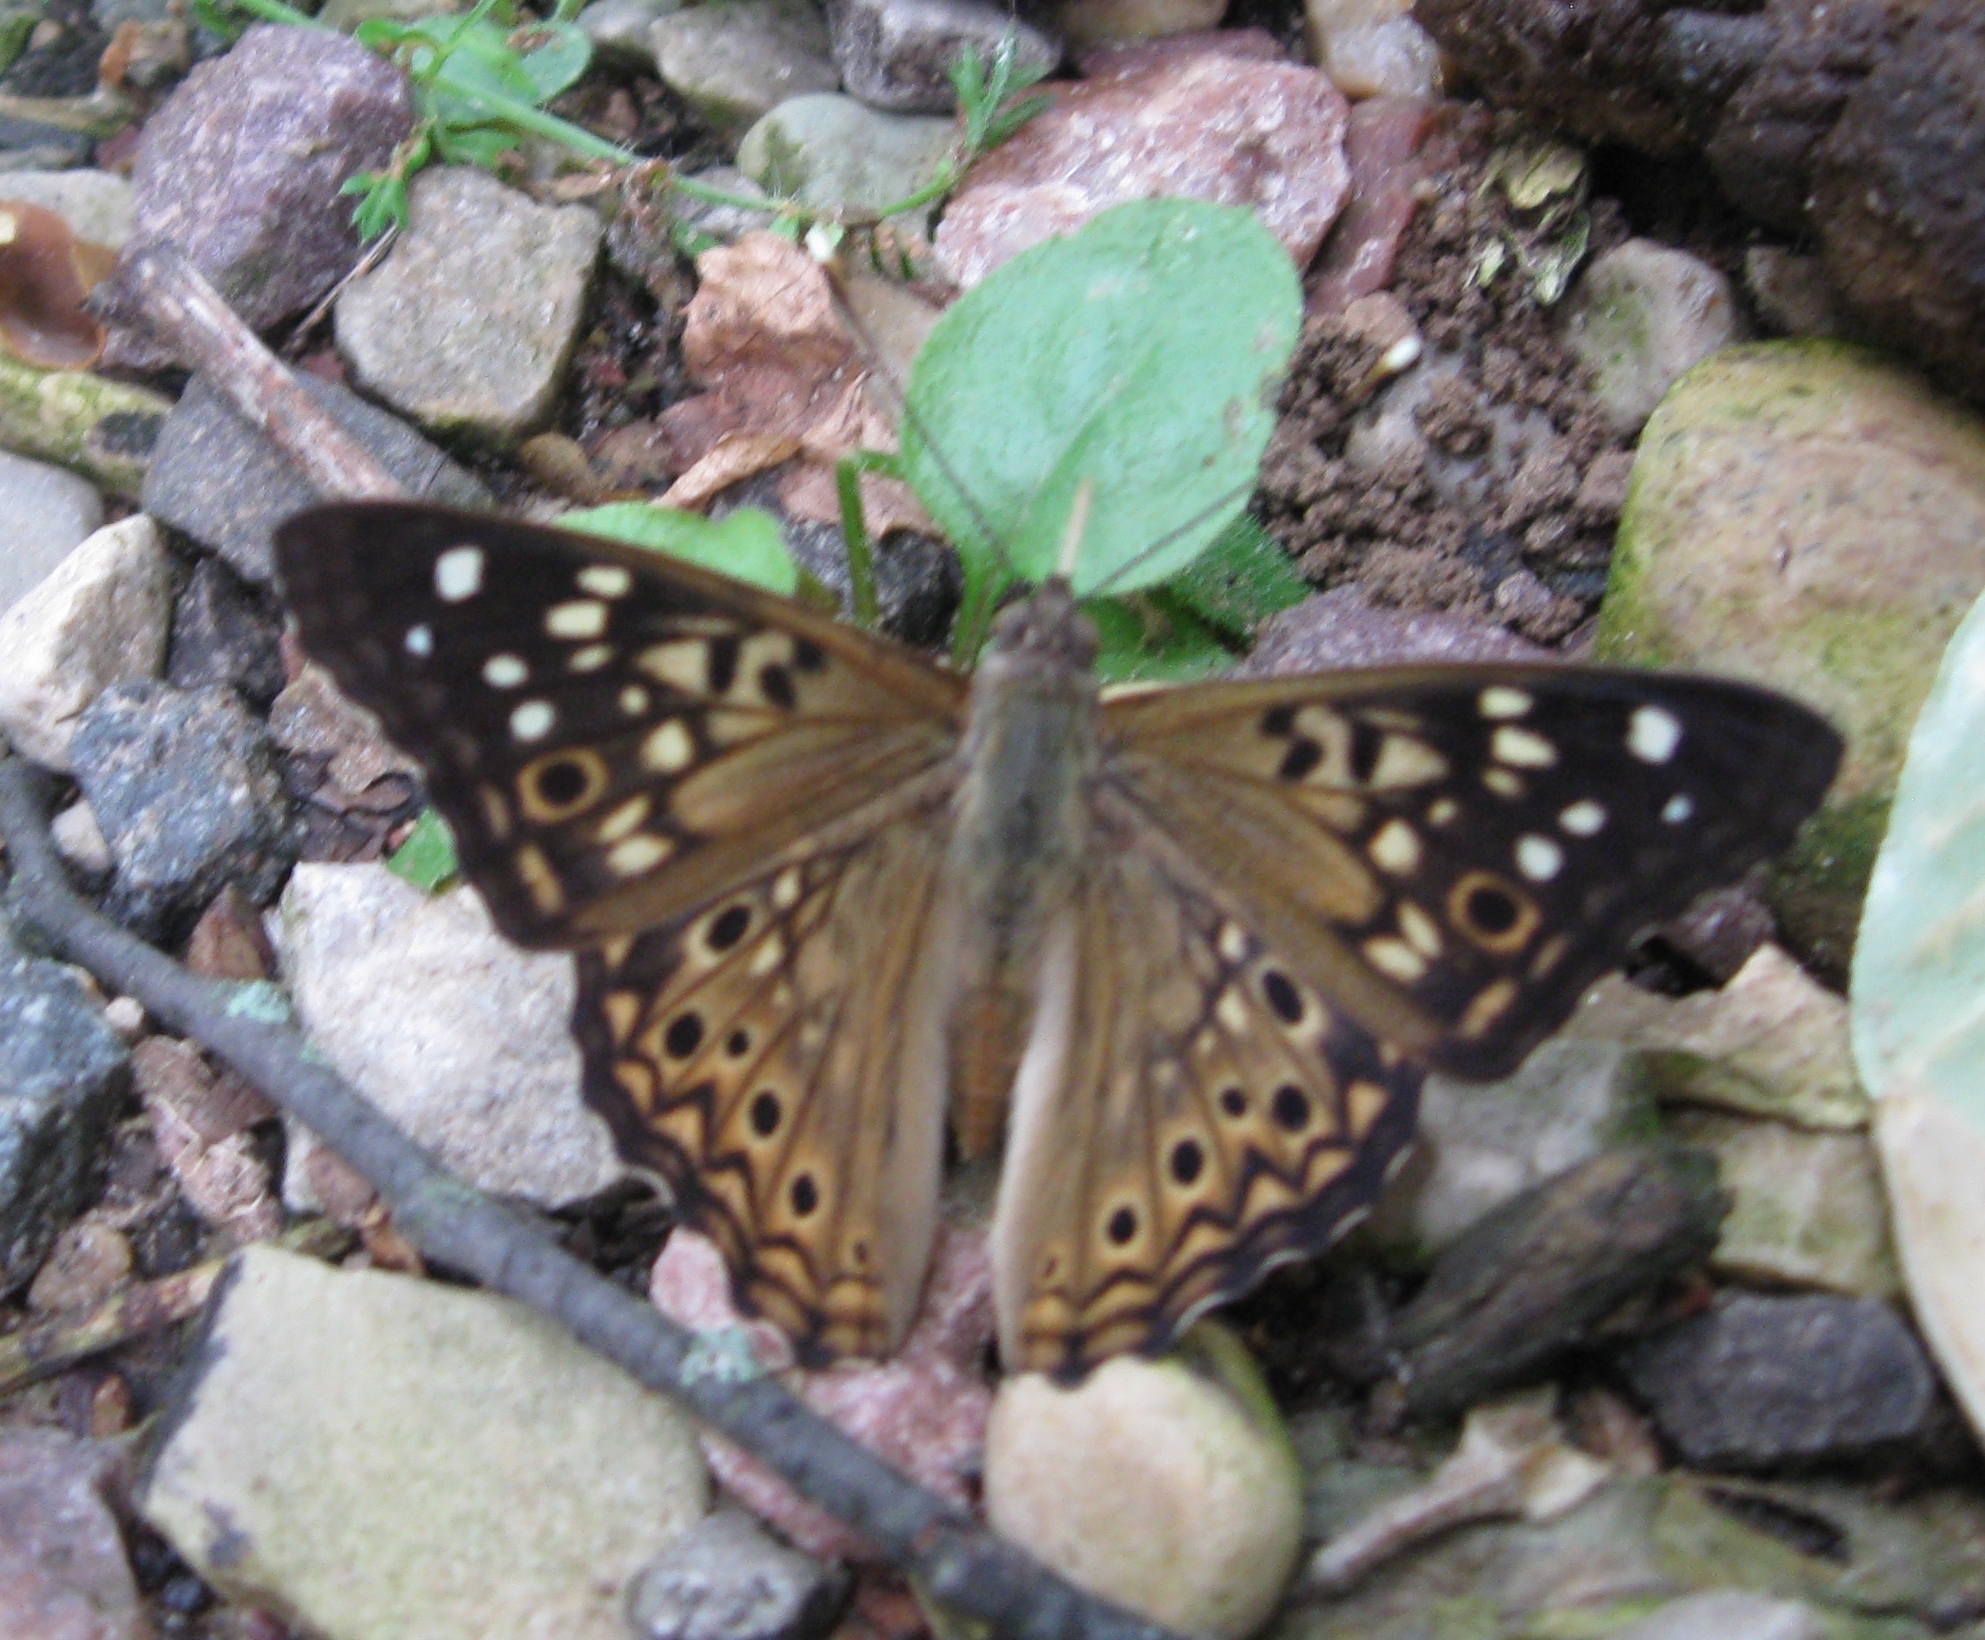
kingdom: Animalia
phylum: Arthropoda
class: Insecta
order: Lepidoptera
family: Nymphalidae
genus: Asterocampa
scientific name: Asterocampa celtis
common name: Hackberry emperor
